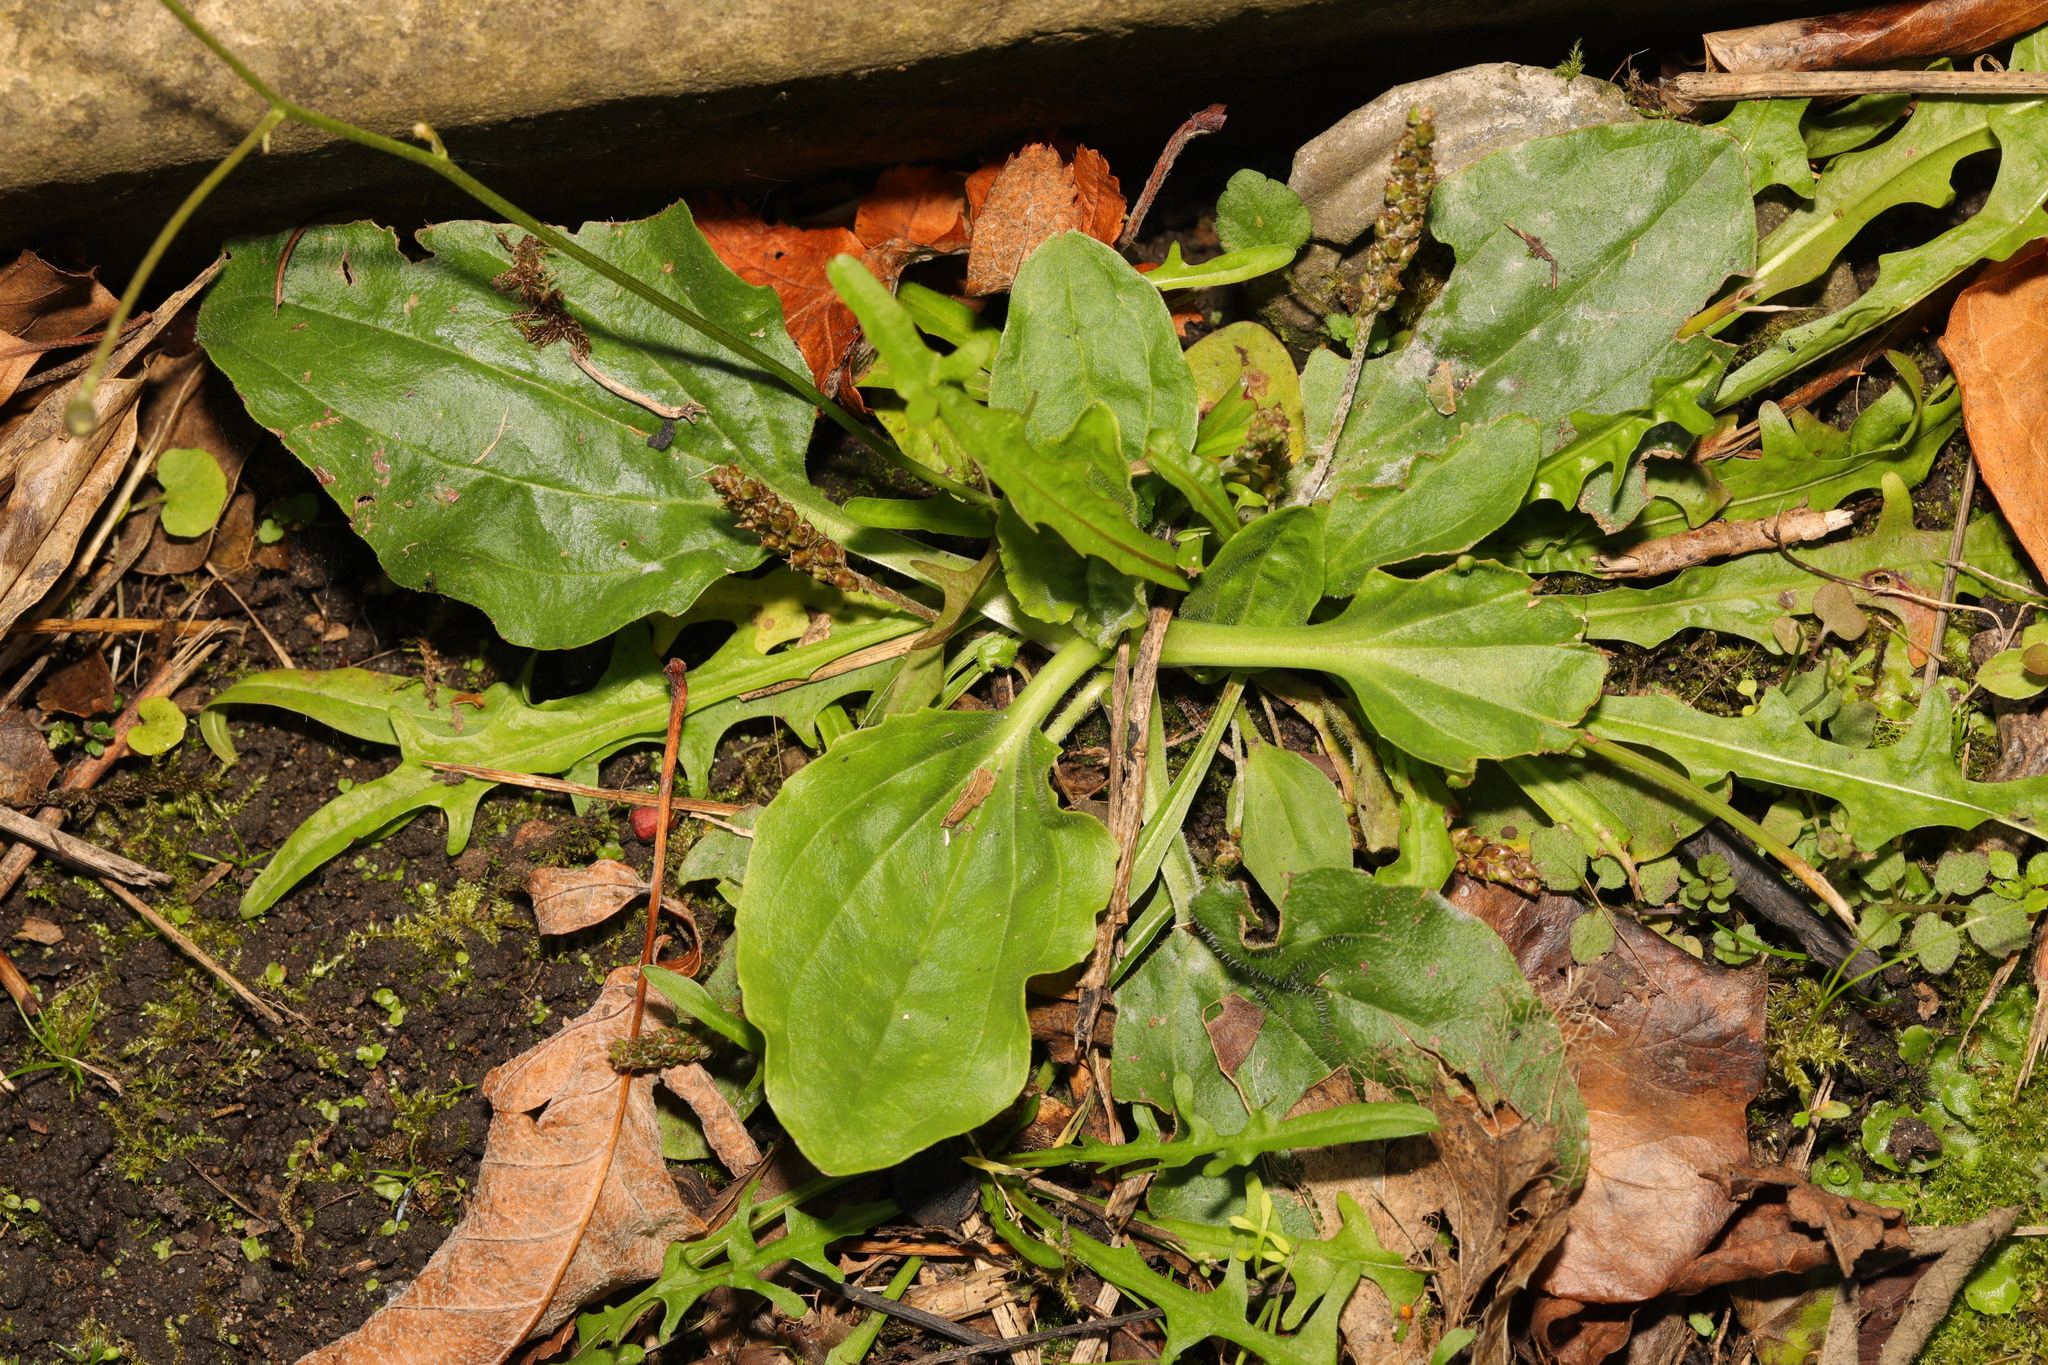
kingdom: Plantae
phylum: Tracheophyta
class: Magnoliopsida
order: Lamiales
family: Plantaginaceae
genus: Plantago
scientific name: Plantago major
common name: Common plantain
